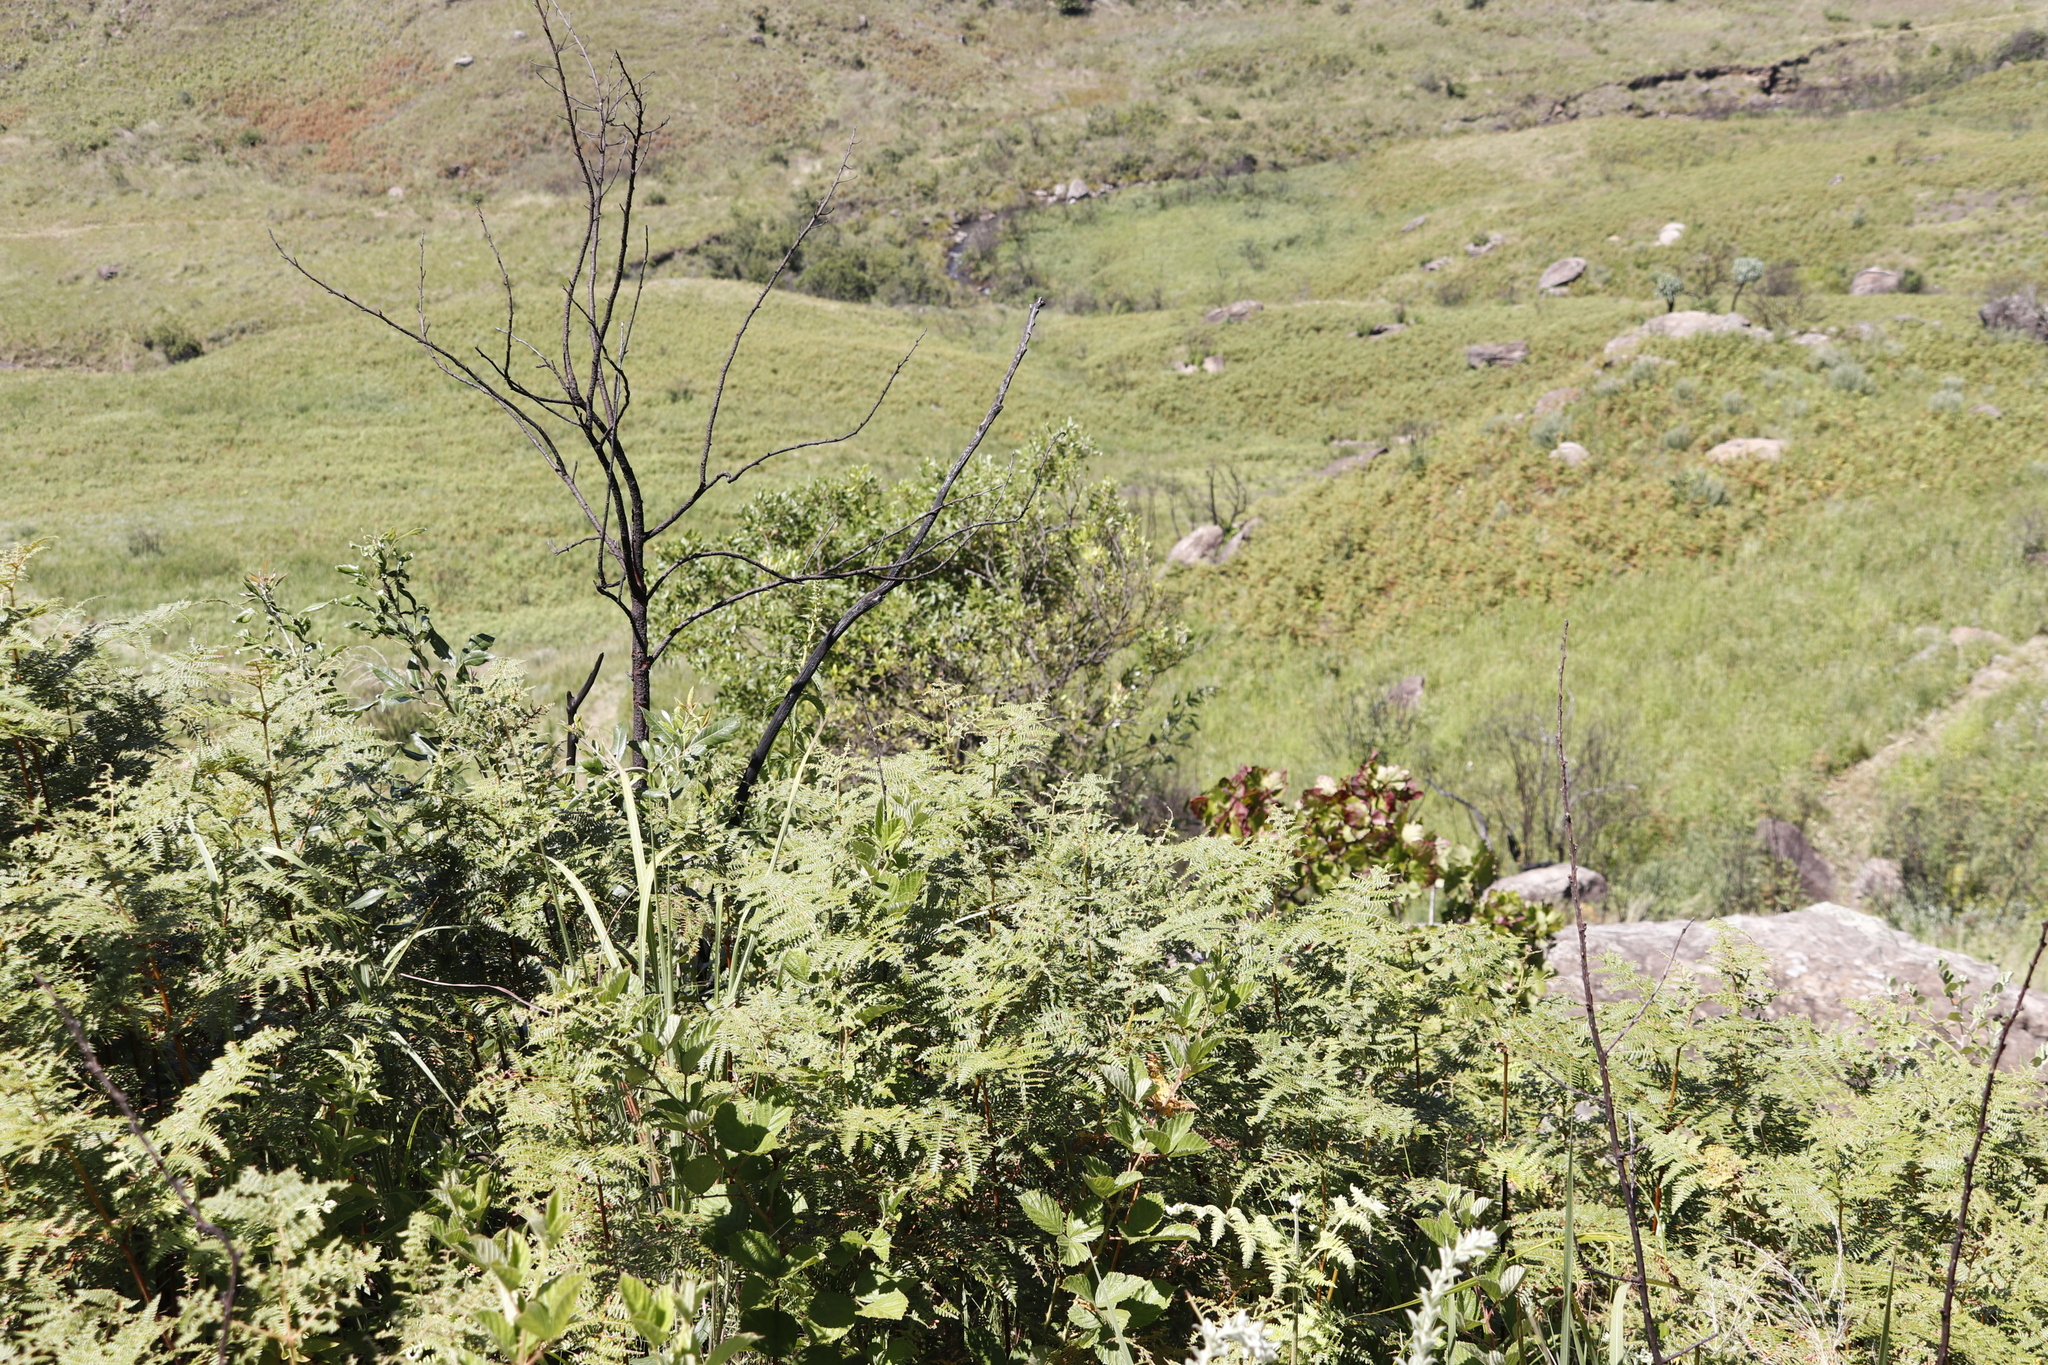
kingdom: Plantae
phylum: Tracheophyta
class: Polypodiopsida
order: Polypodiales
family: Dennstaedtiaceae
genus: Pteridium
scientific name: Pteridium aquilinum
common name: Bracken
